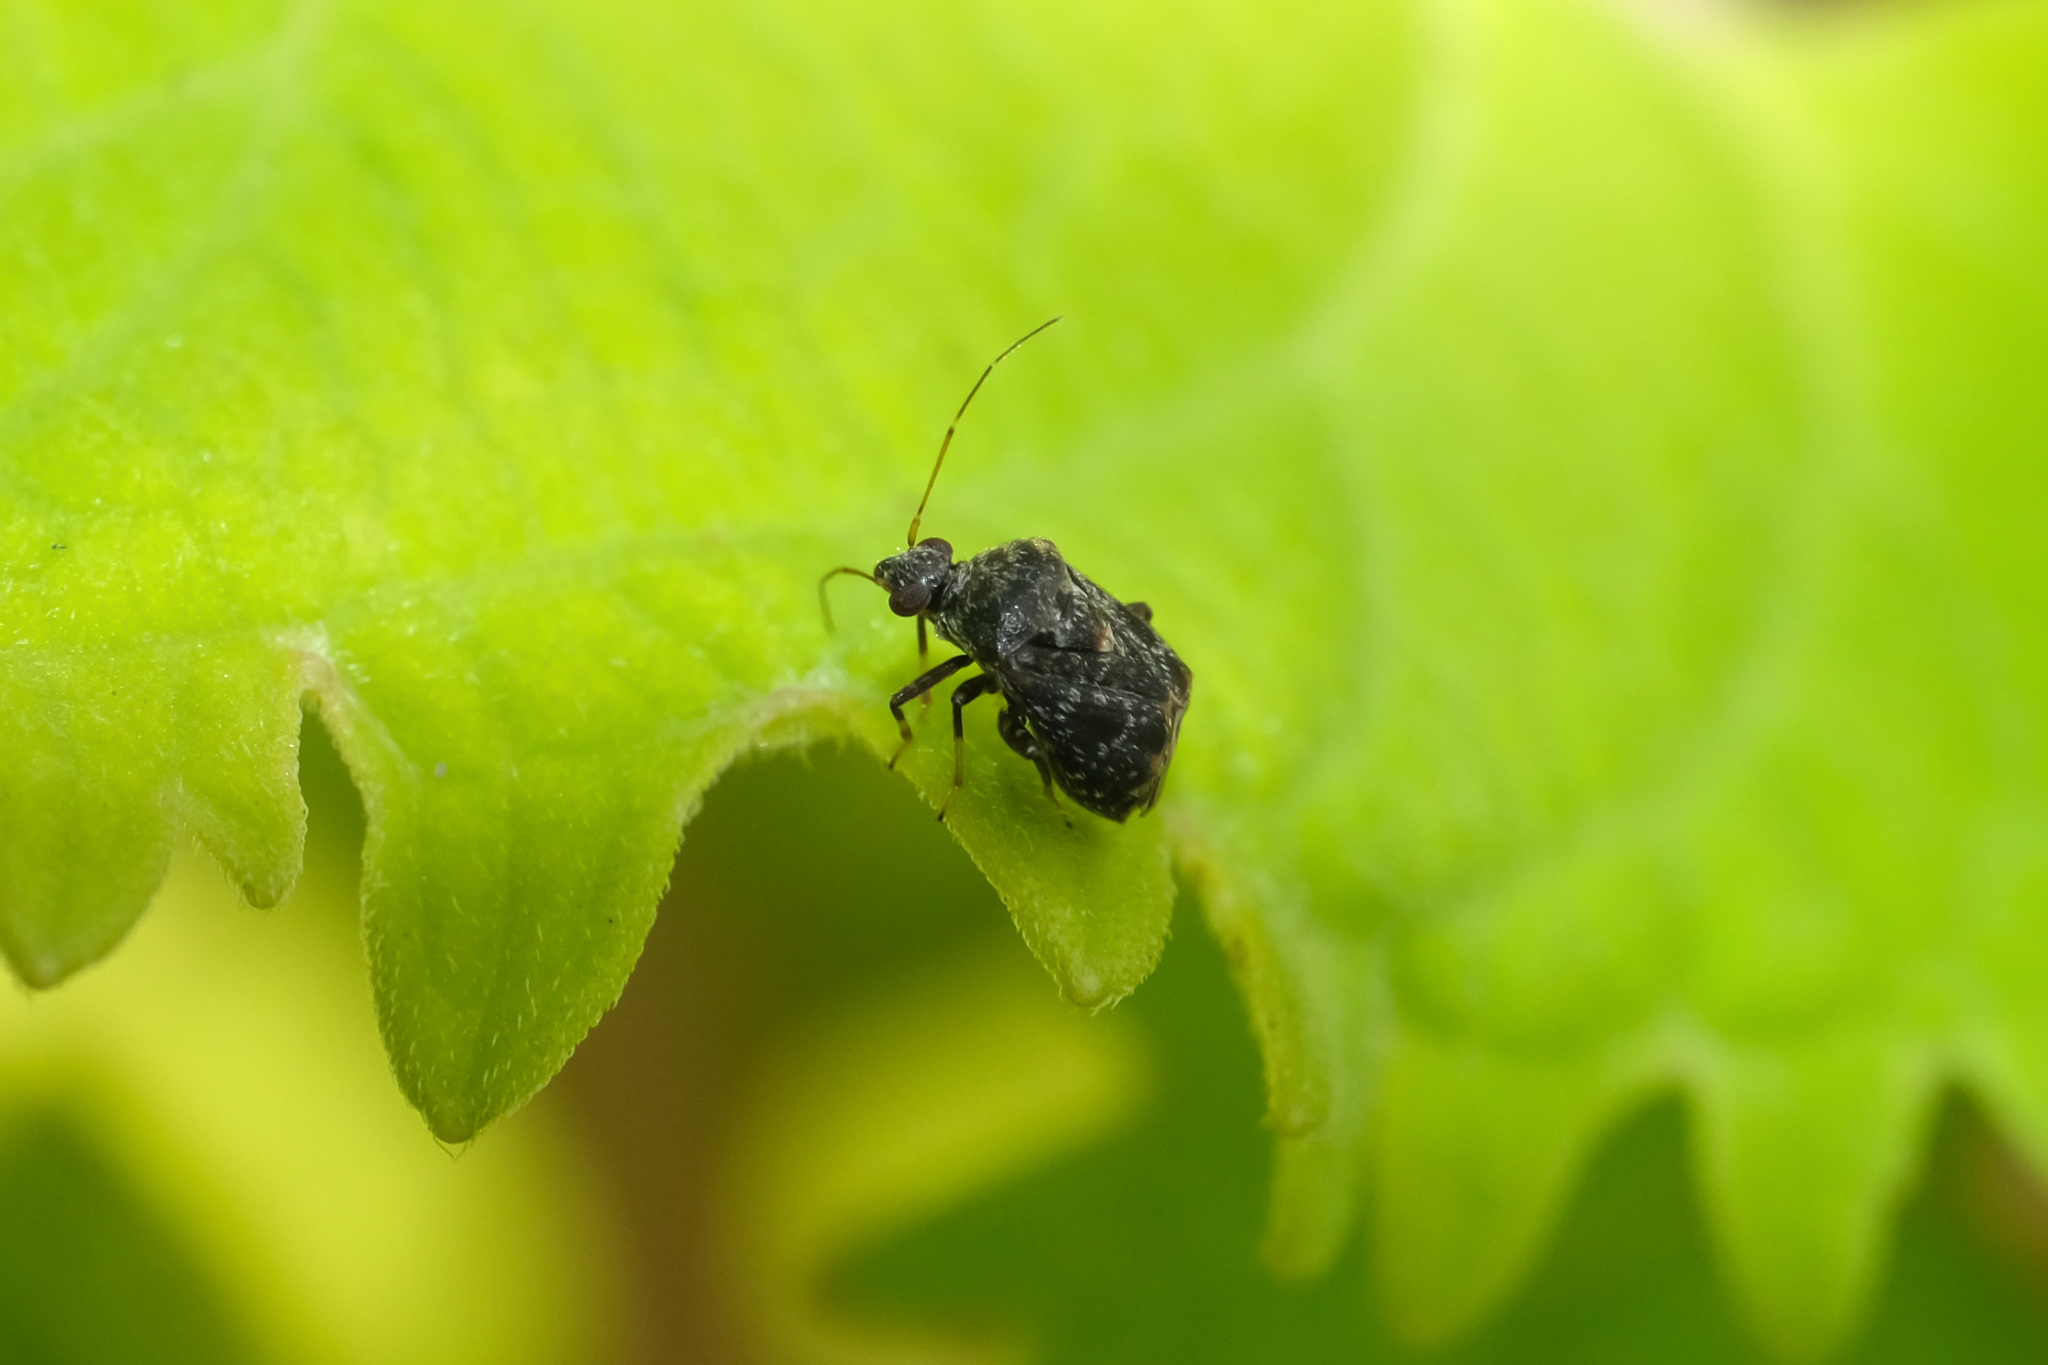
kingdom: Animalia
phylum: Arthropoda
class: Insecta
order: Hemiptera
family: Miridae
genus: Charagochilus
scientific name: Charagochilus angusticollis
